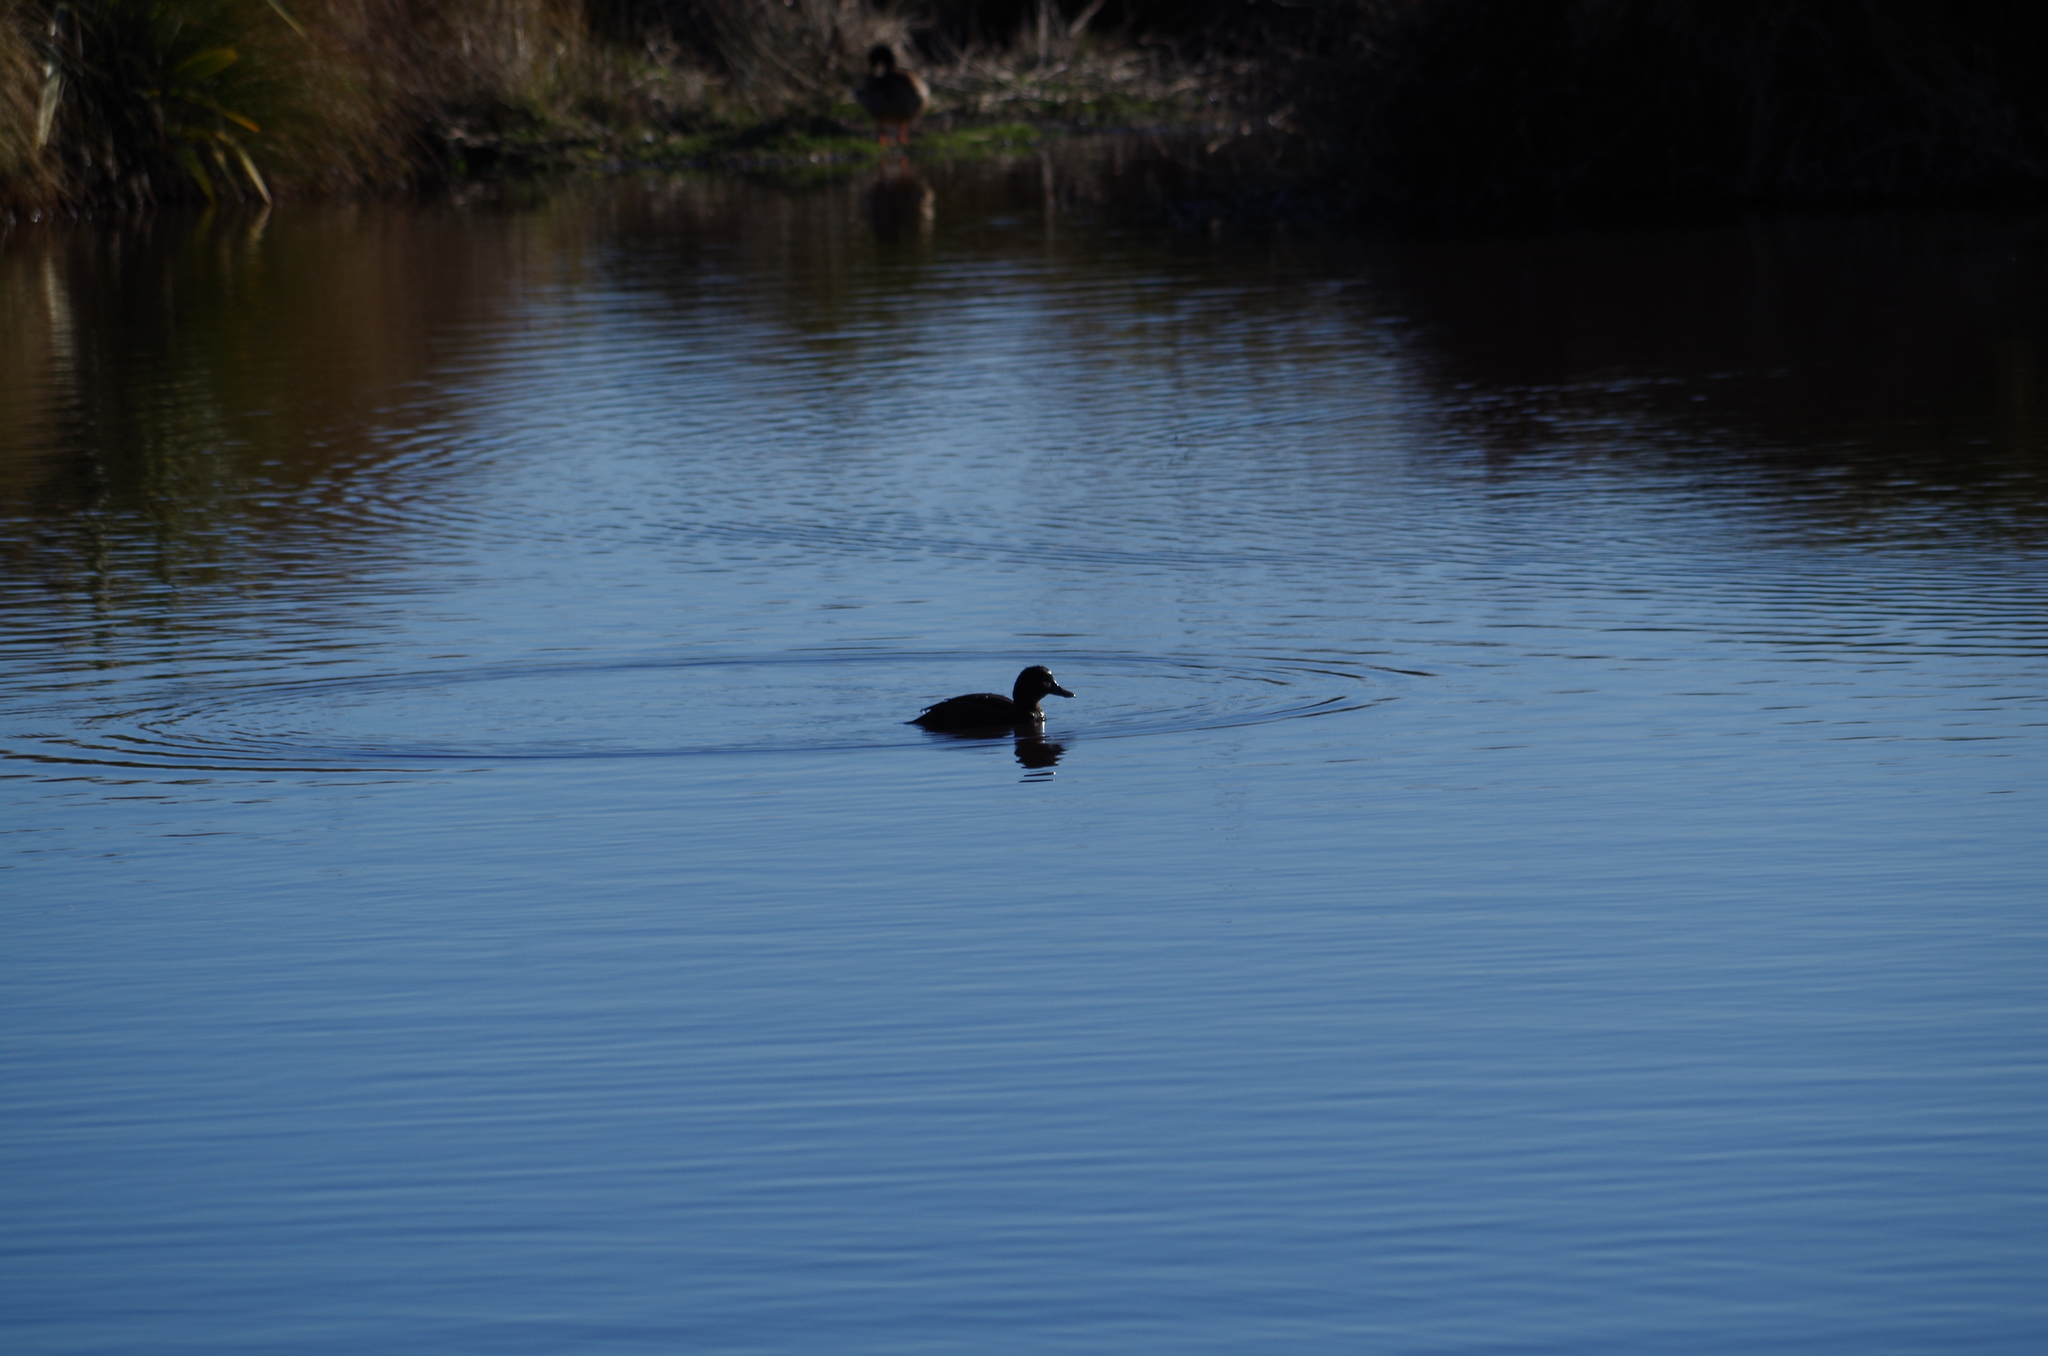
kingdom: Animalia
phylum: Chordata
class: Aves
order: Anseriformes
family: Anatidae
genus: Aythya
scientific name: Aythya novaeseelandiae
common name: New zealand scaup
